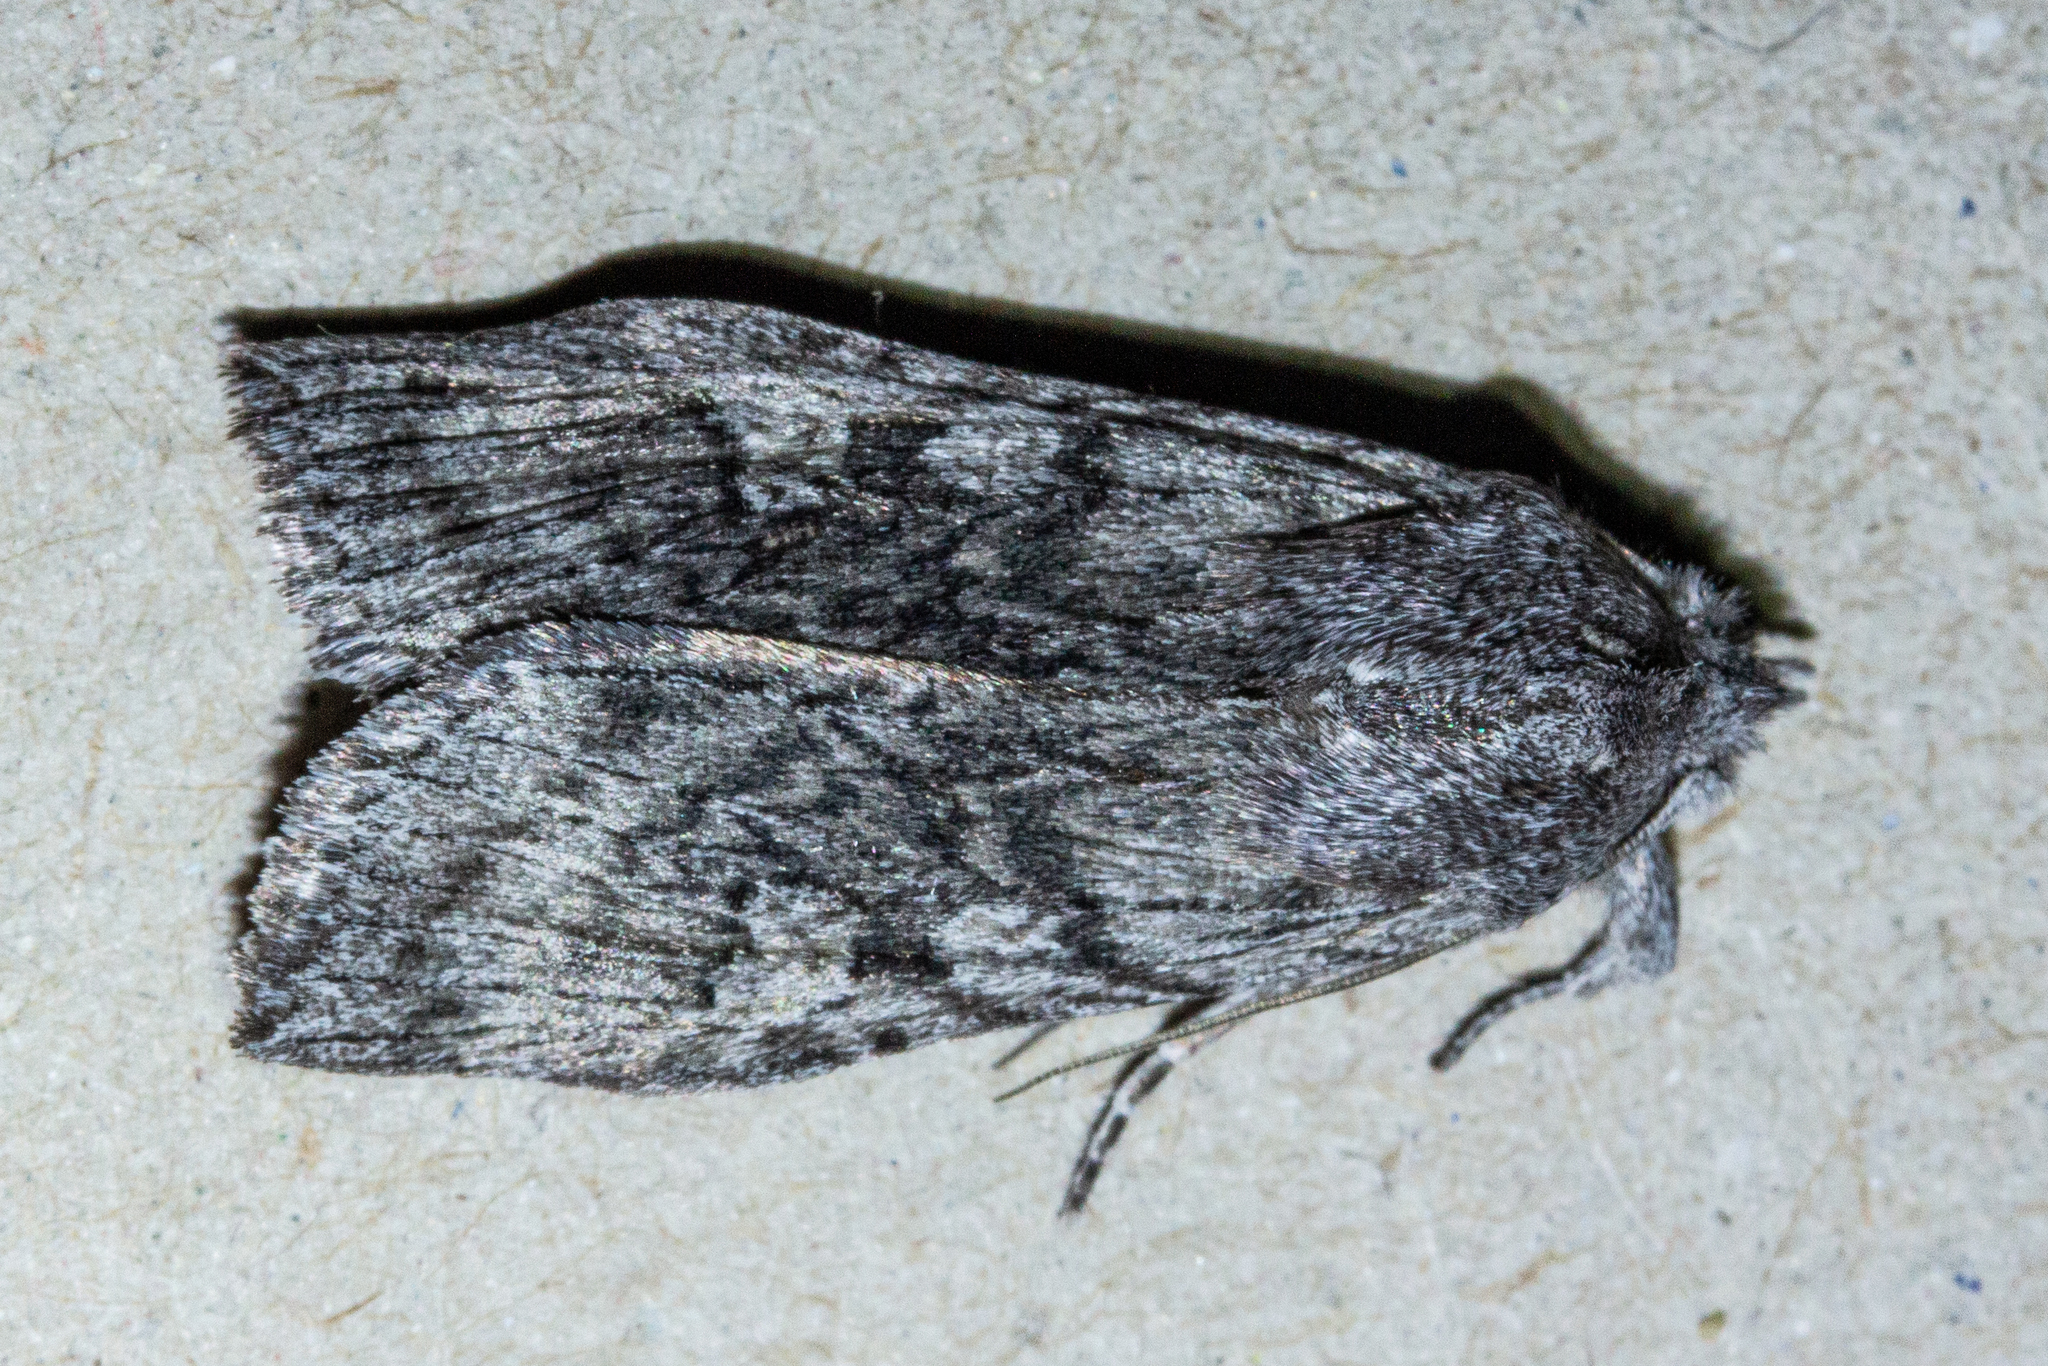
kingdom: Animalia
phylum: Arthropoda
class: Insecta
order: Lepidoptera
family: Noctuidae
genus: Physetica
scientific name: Physetica phricias
